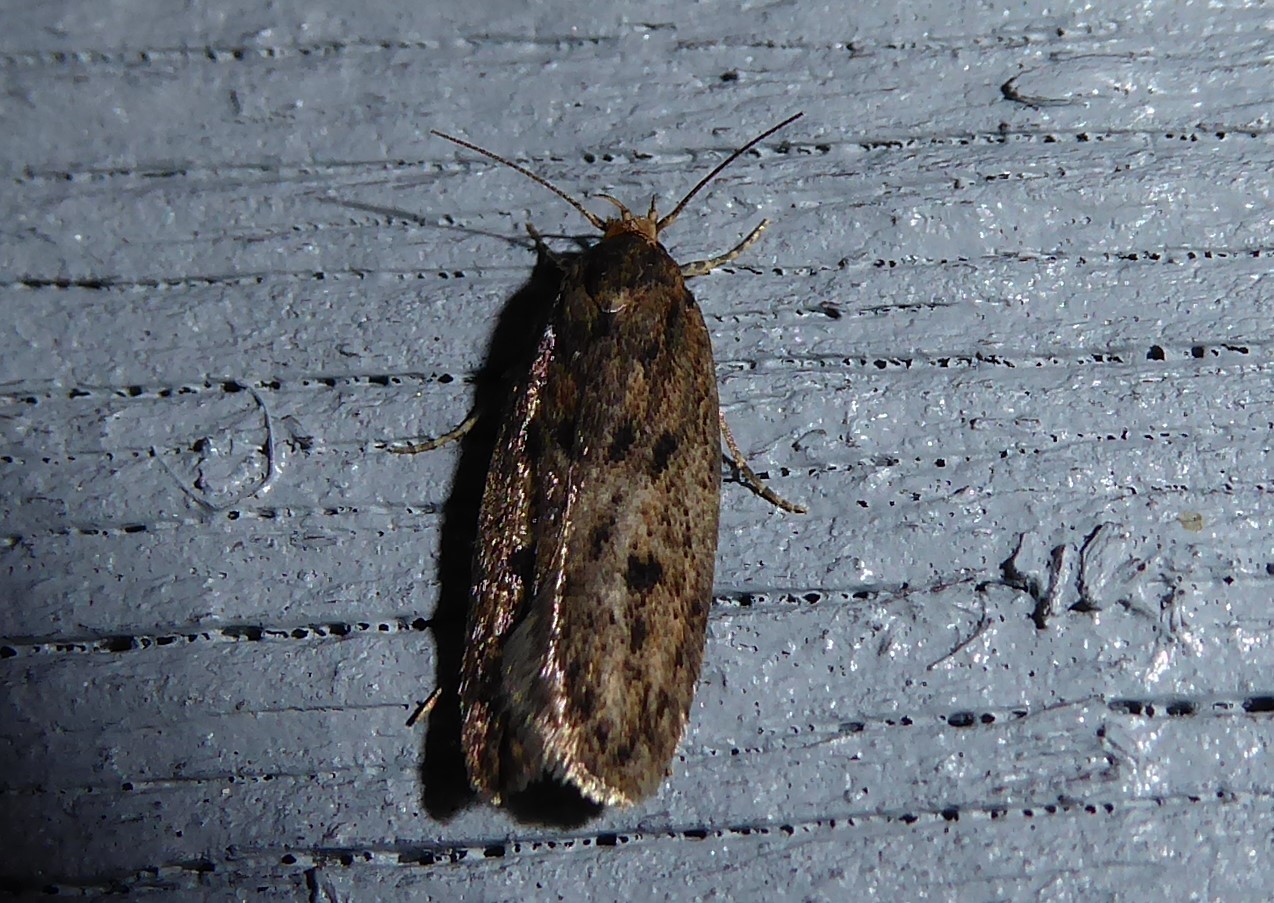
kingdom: Animalia
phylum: Arthropoda
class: Insecta
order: Lepidoptera
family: Oecophoridae
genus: Hofmannophila
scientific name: Hofmannophila pseudospretella
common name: Brown house moth
